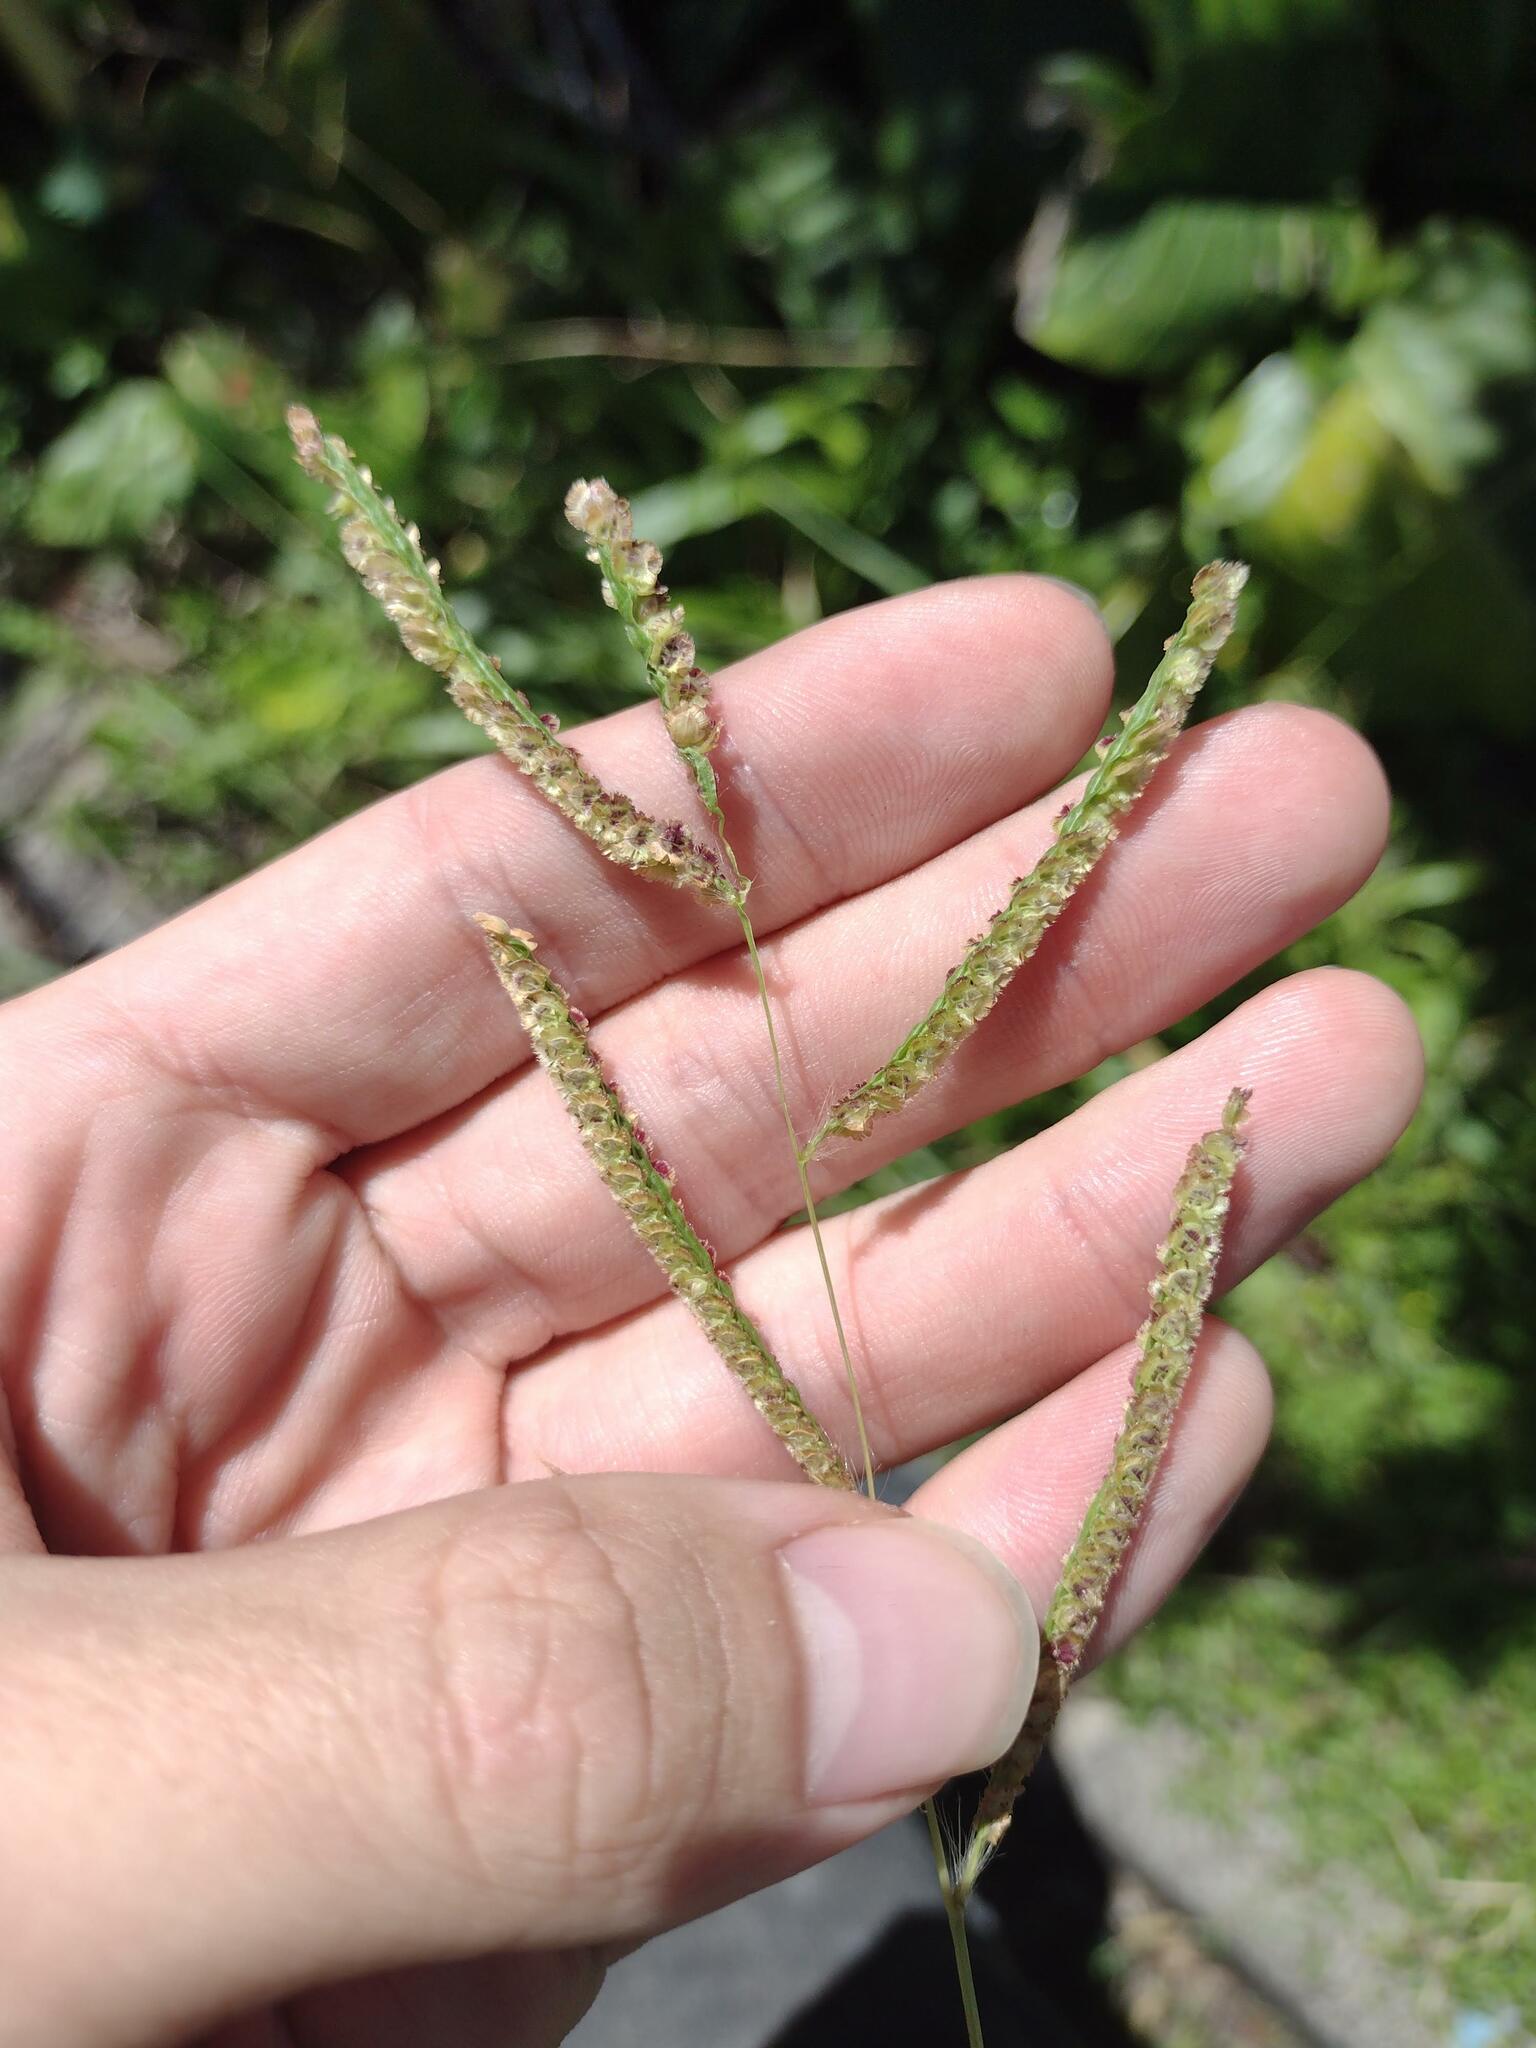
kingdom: Plantae
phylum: Tracheophyta
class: Liliopsida
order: Poales
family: Poaceae
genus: Paspalum
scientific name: Paspalum fimbriatum
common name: Panama crowngrass
